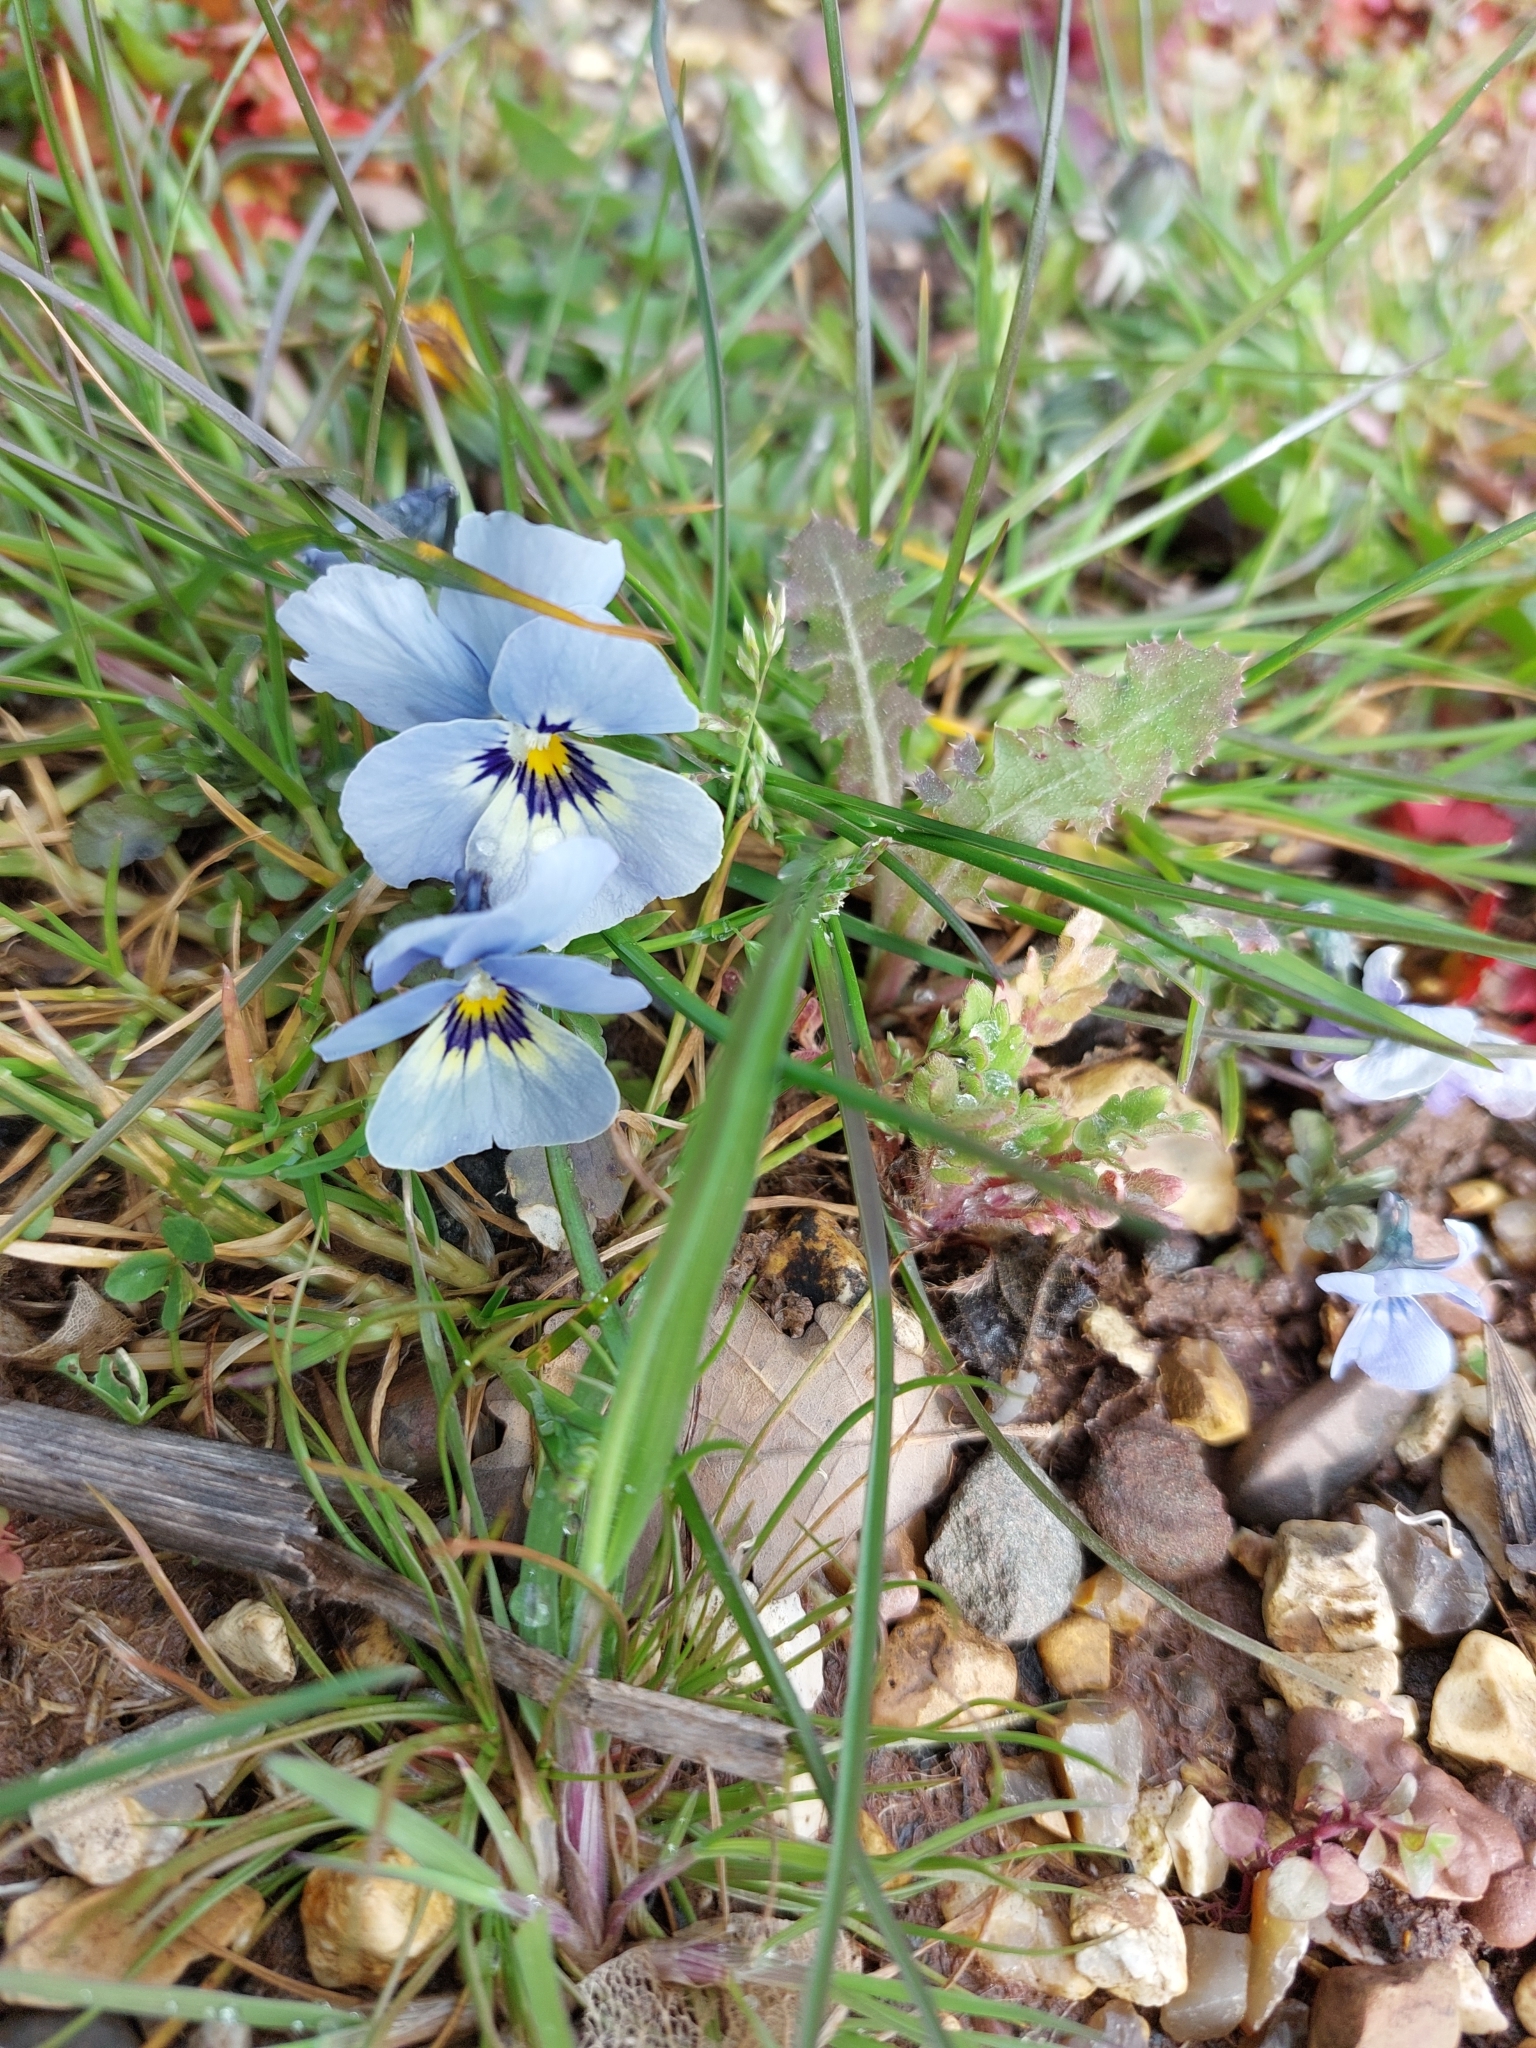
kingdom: Plantae
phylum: Tracheophyta
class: Magnoliopsida
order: Malpighiales
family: Violaceae
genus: Viola
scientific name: Viola williamsii
